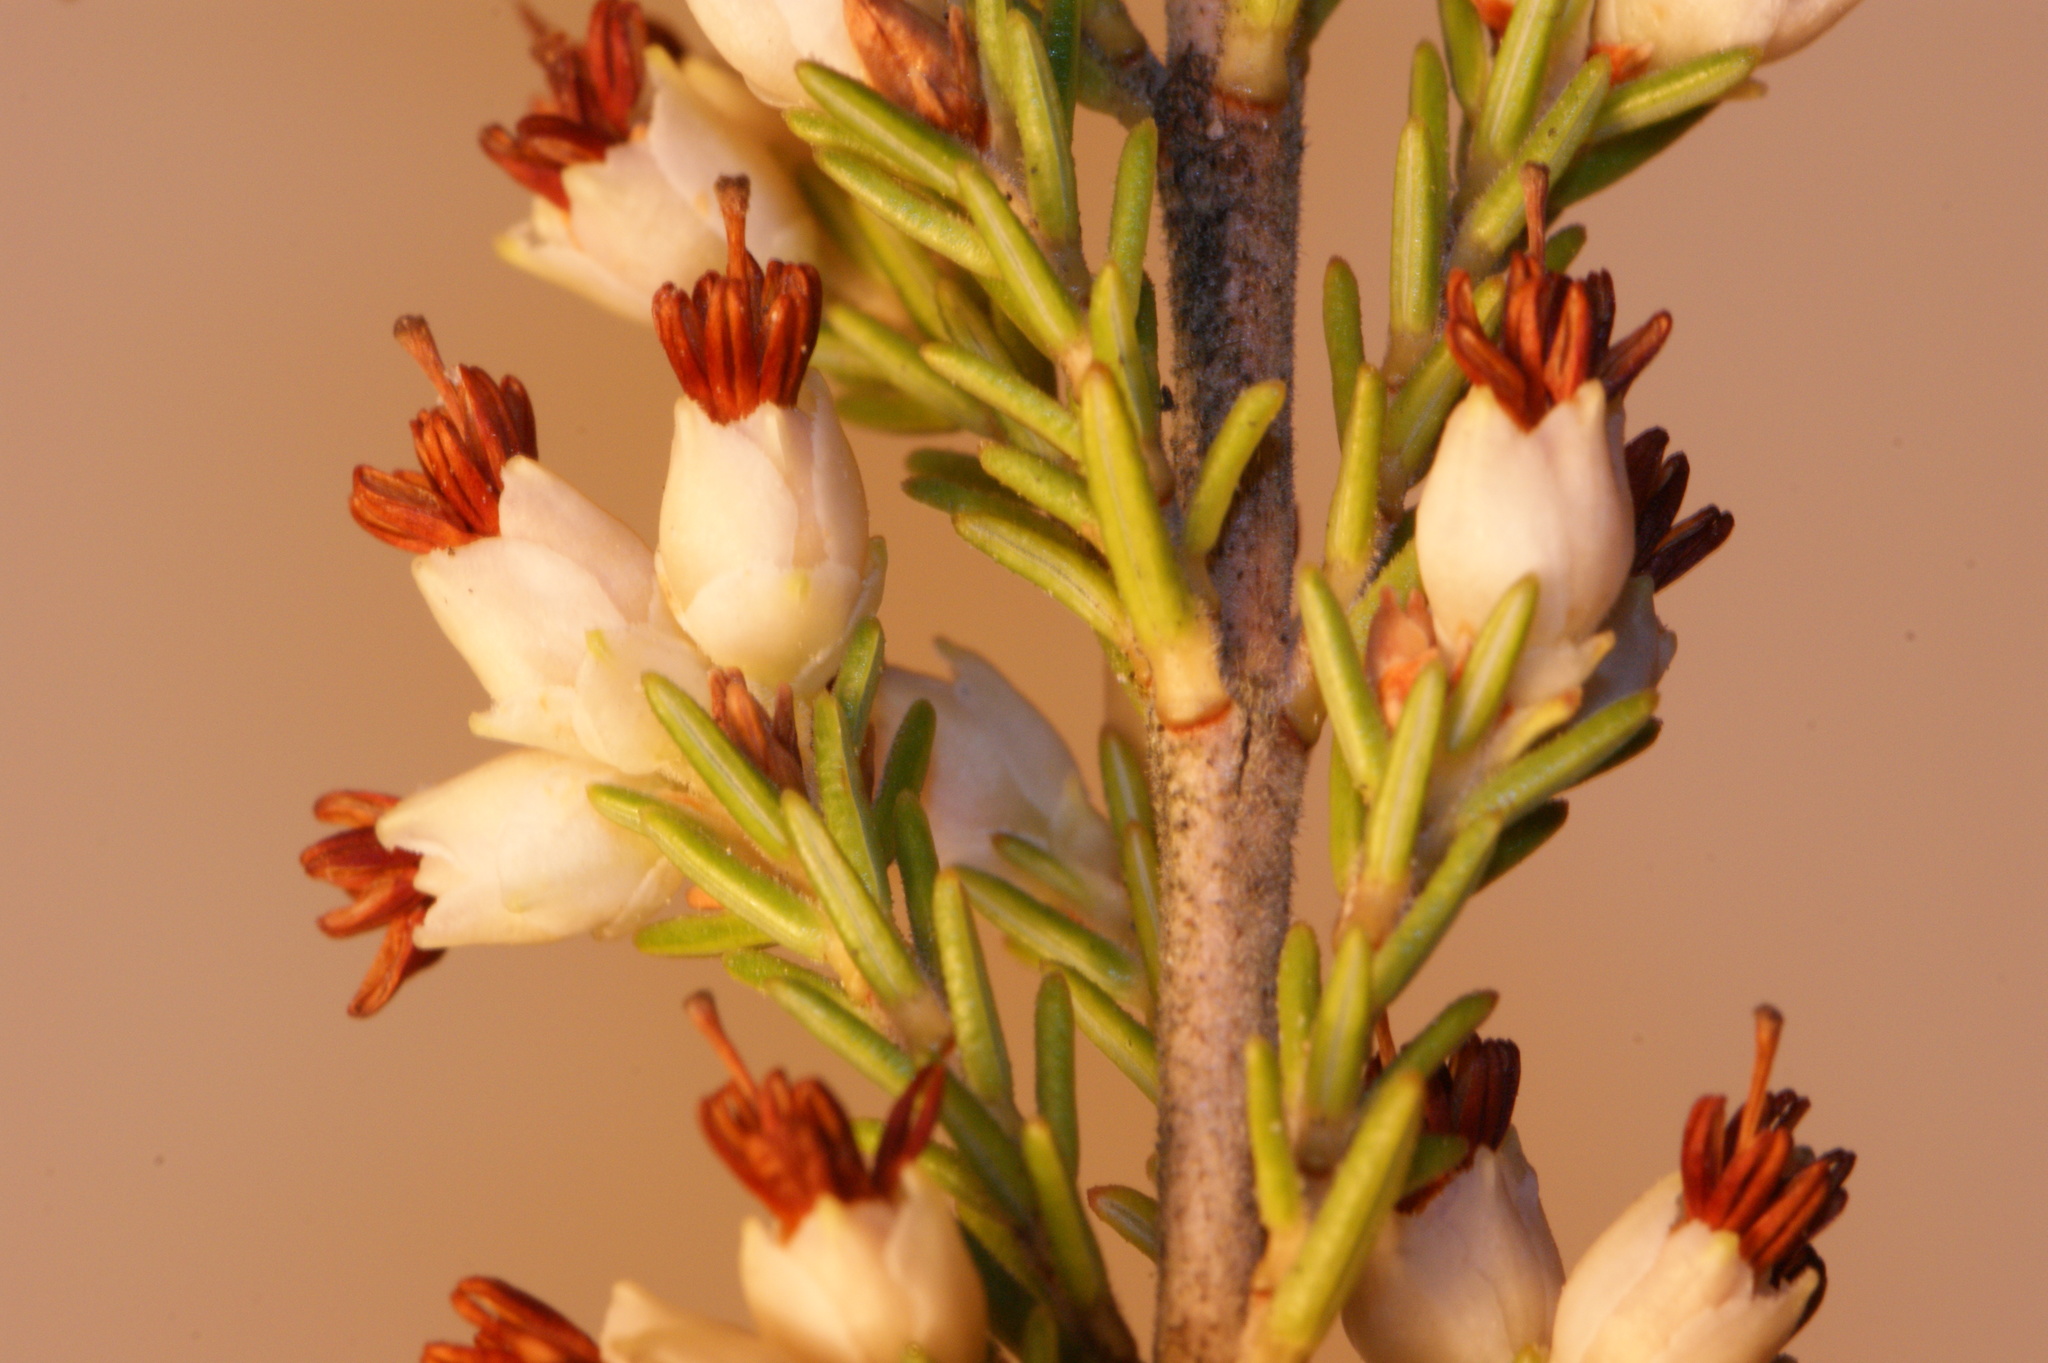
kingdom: Plantae
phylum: Tracheophyta
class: Magnoliopsida
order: Ericales
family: Ericaceae
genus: Erica
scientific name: Erica imbricata
